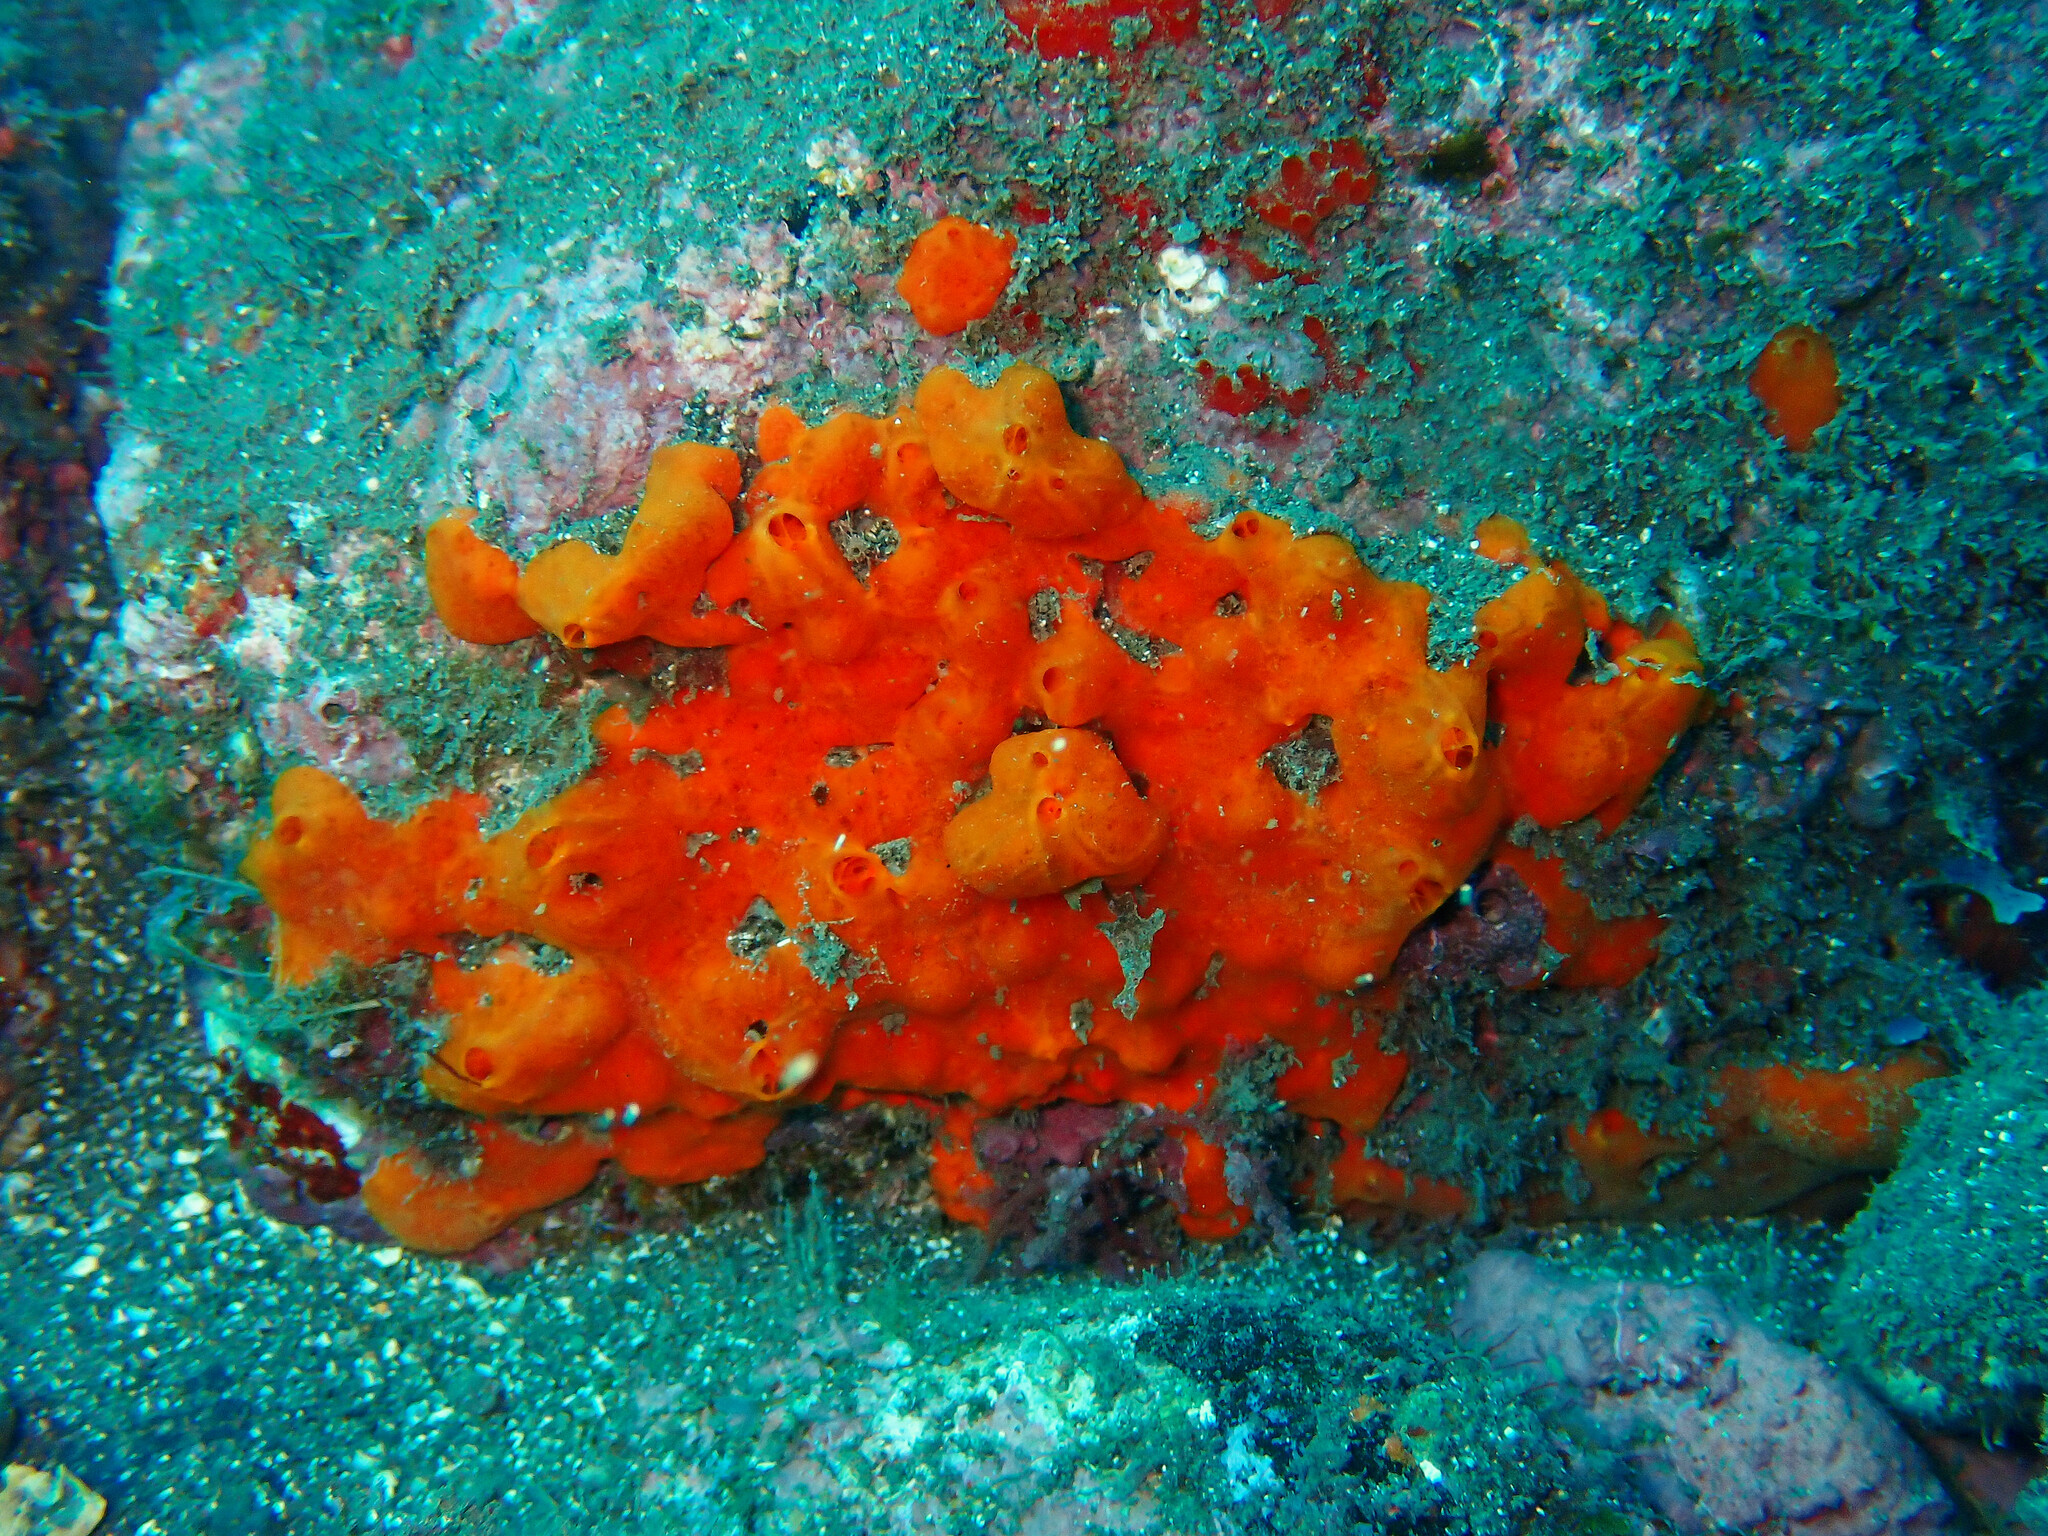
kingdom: Animalia
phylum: Porifera
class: Demospongiae
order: Poecilosclerida
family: Crambeidae
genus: Crambe
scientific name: Crambe crambe
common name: Orange-red encrusting sponge
